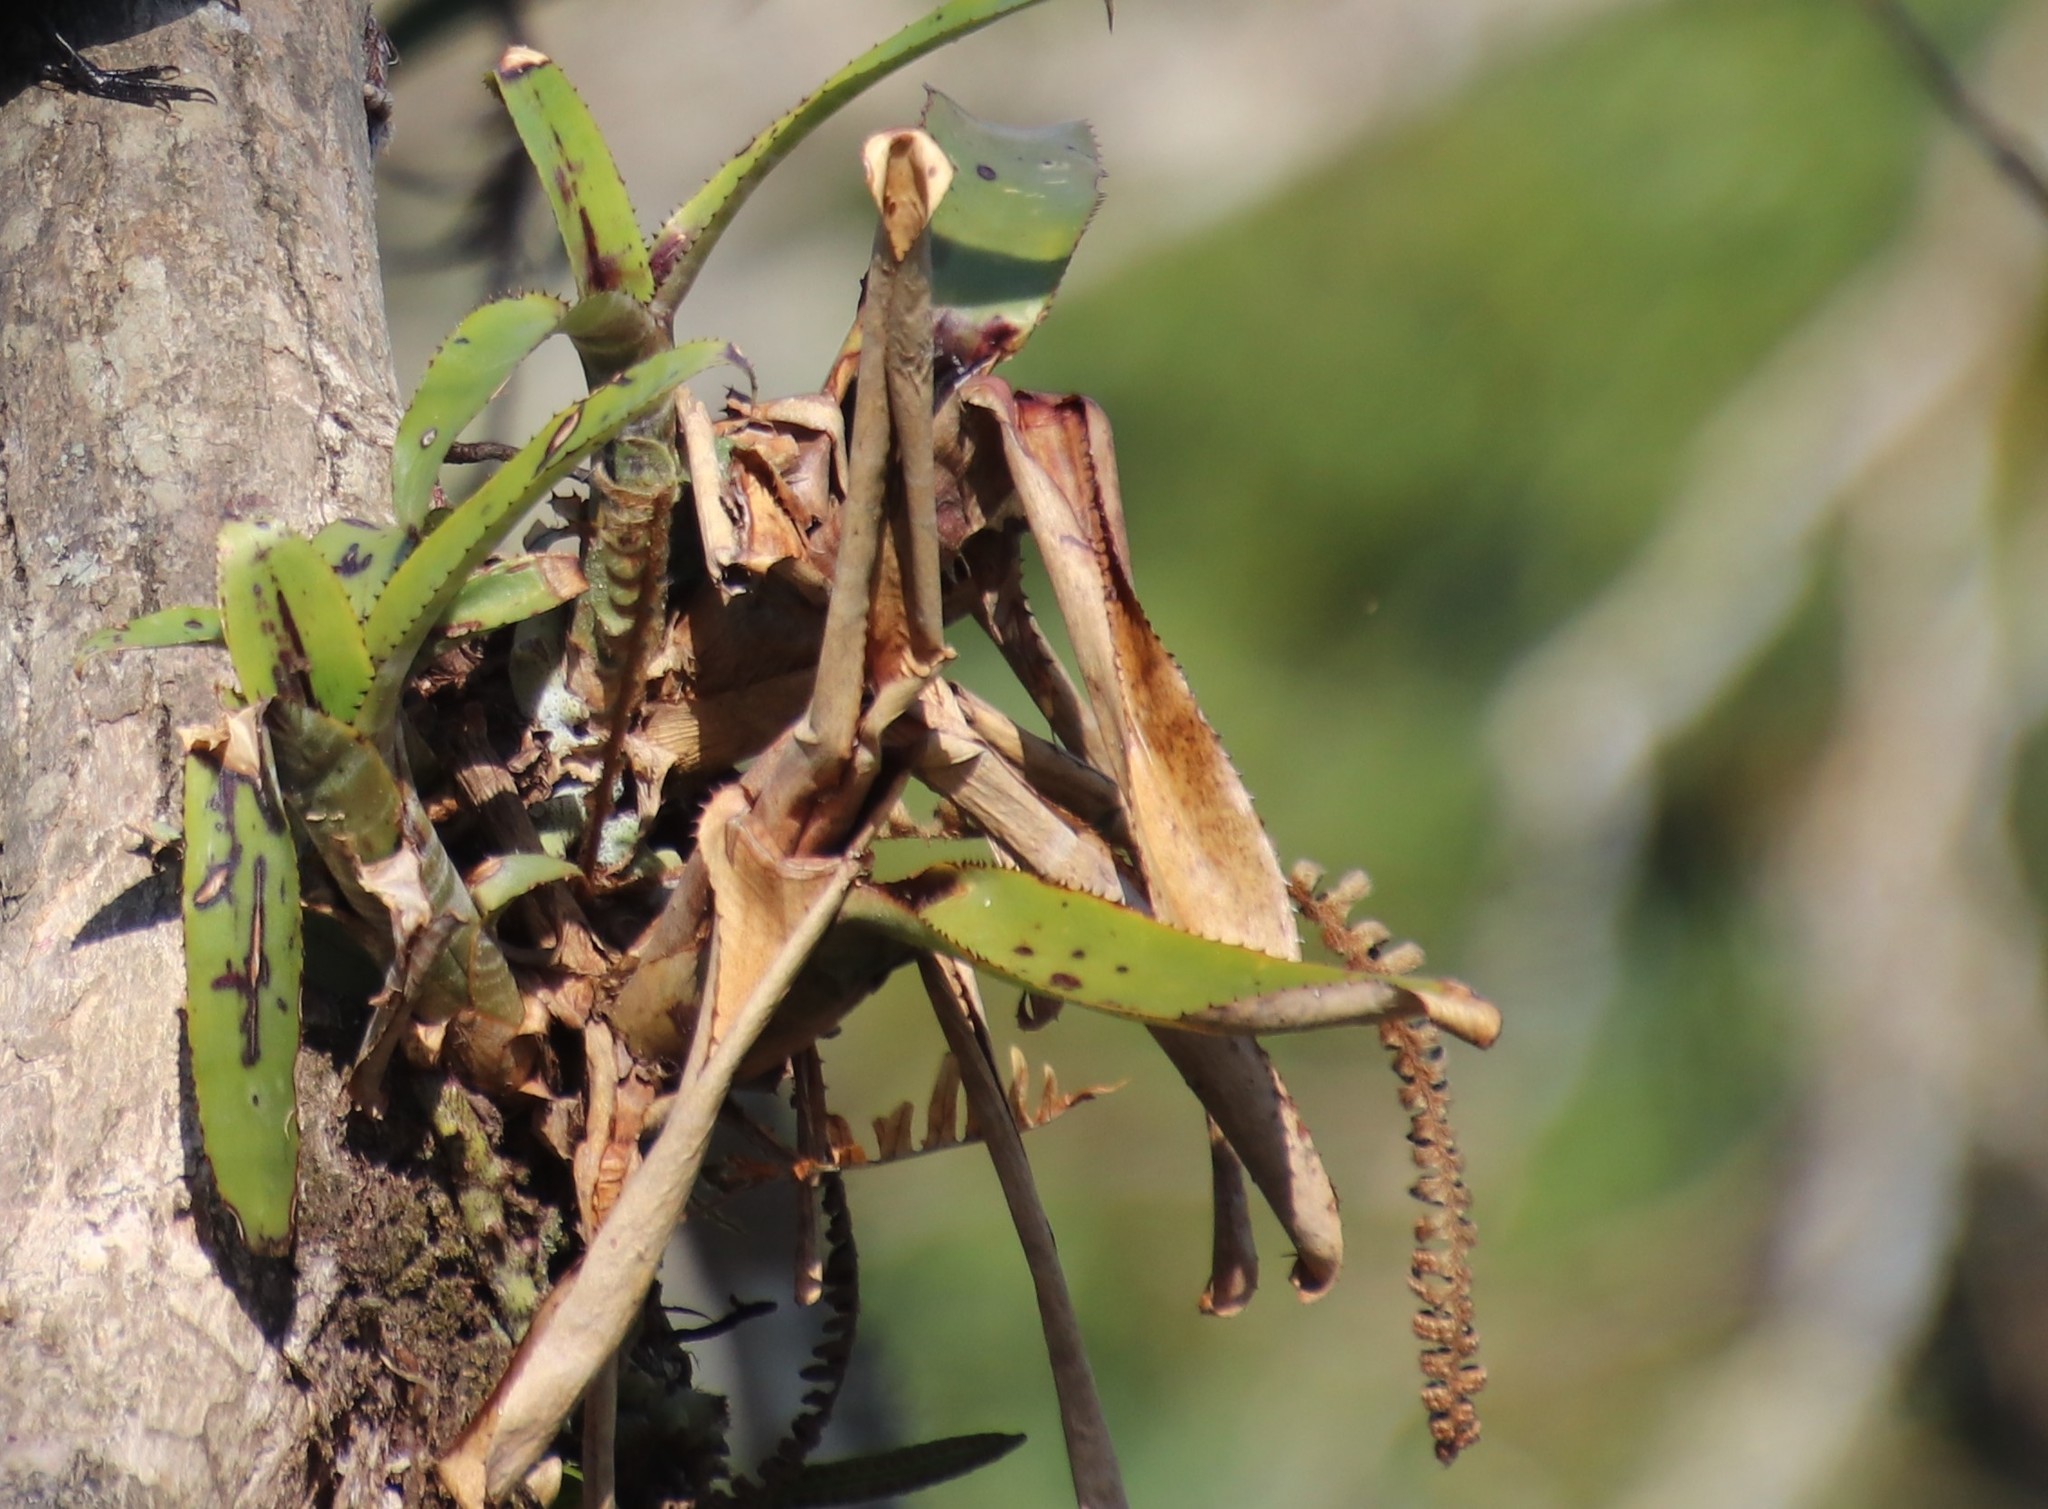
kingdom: Plantae
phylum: Tracheophyta
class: Liliopsida
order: Poales
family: Bromeliaceae
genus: Aechmea
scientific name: Aechmea nudicaulis
